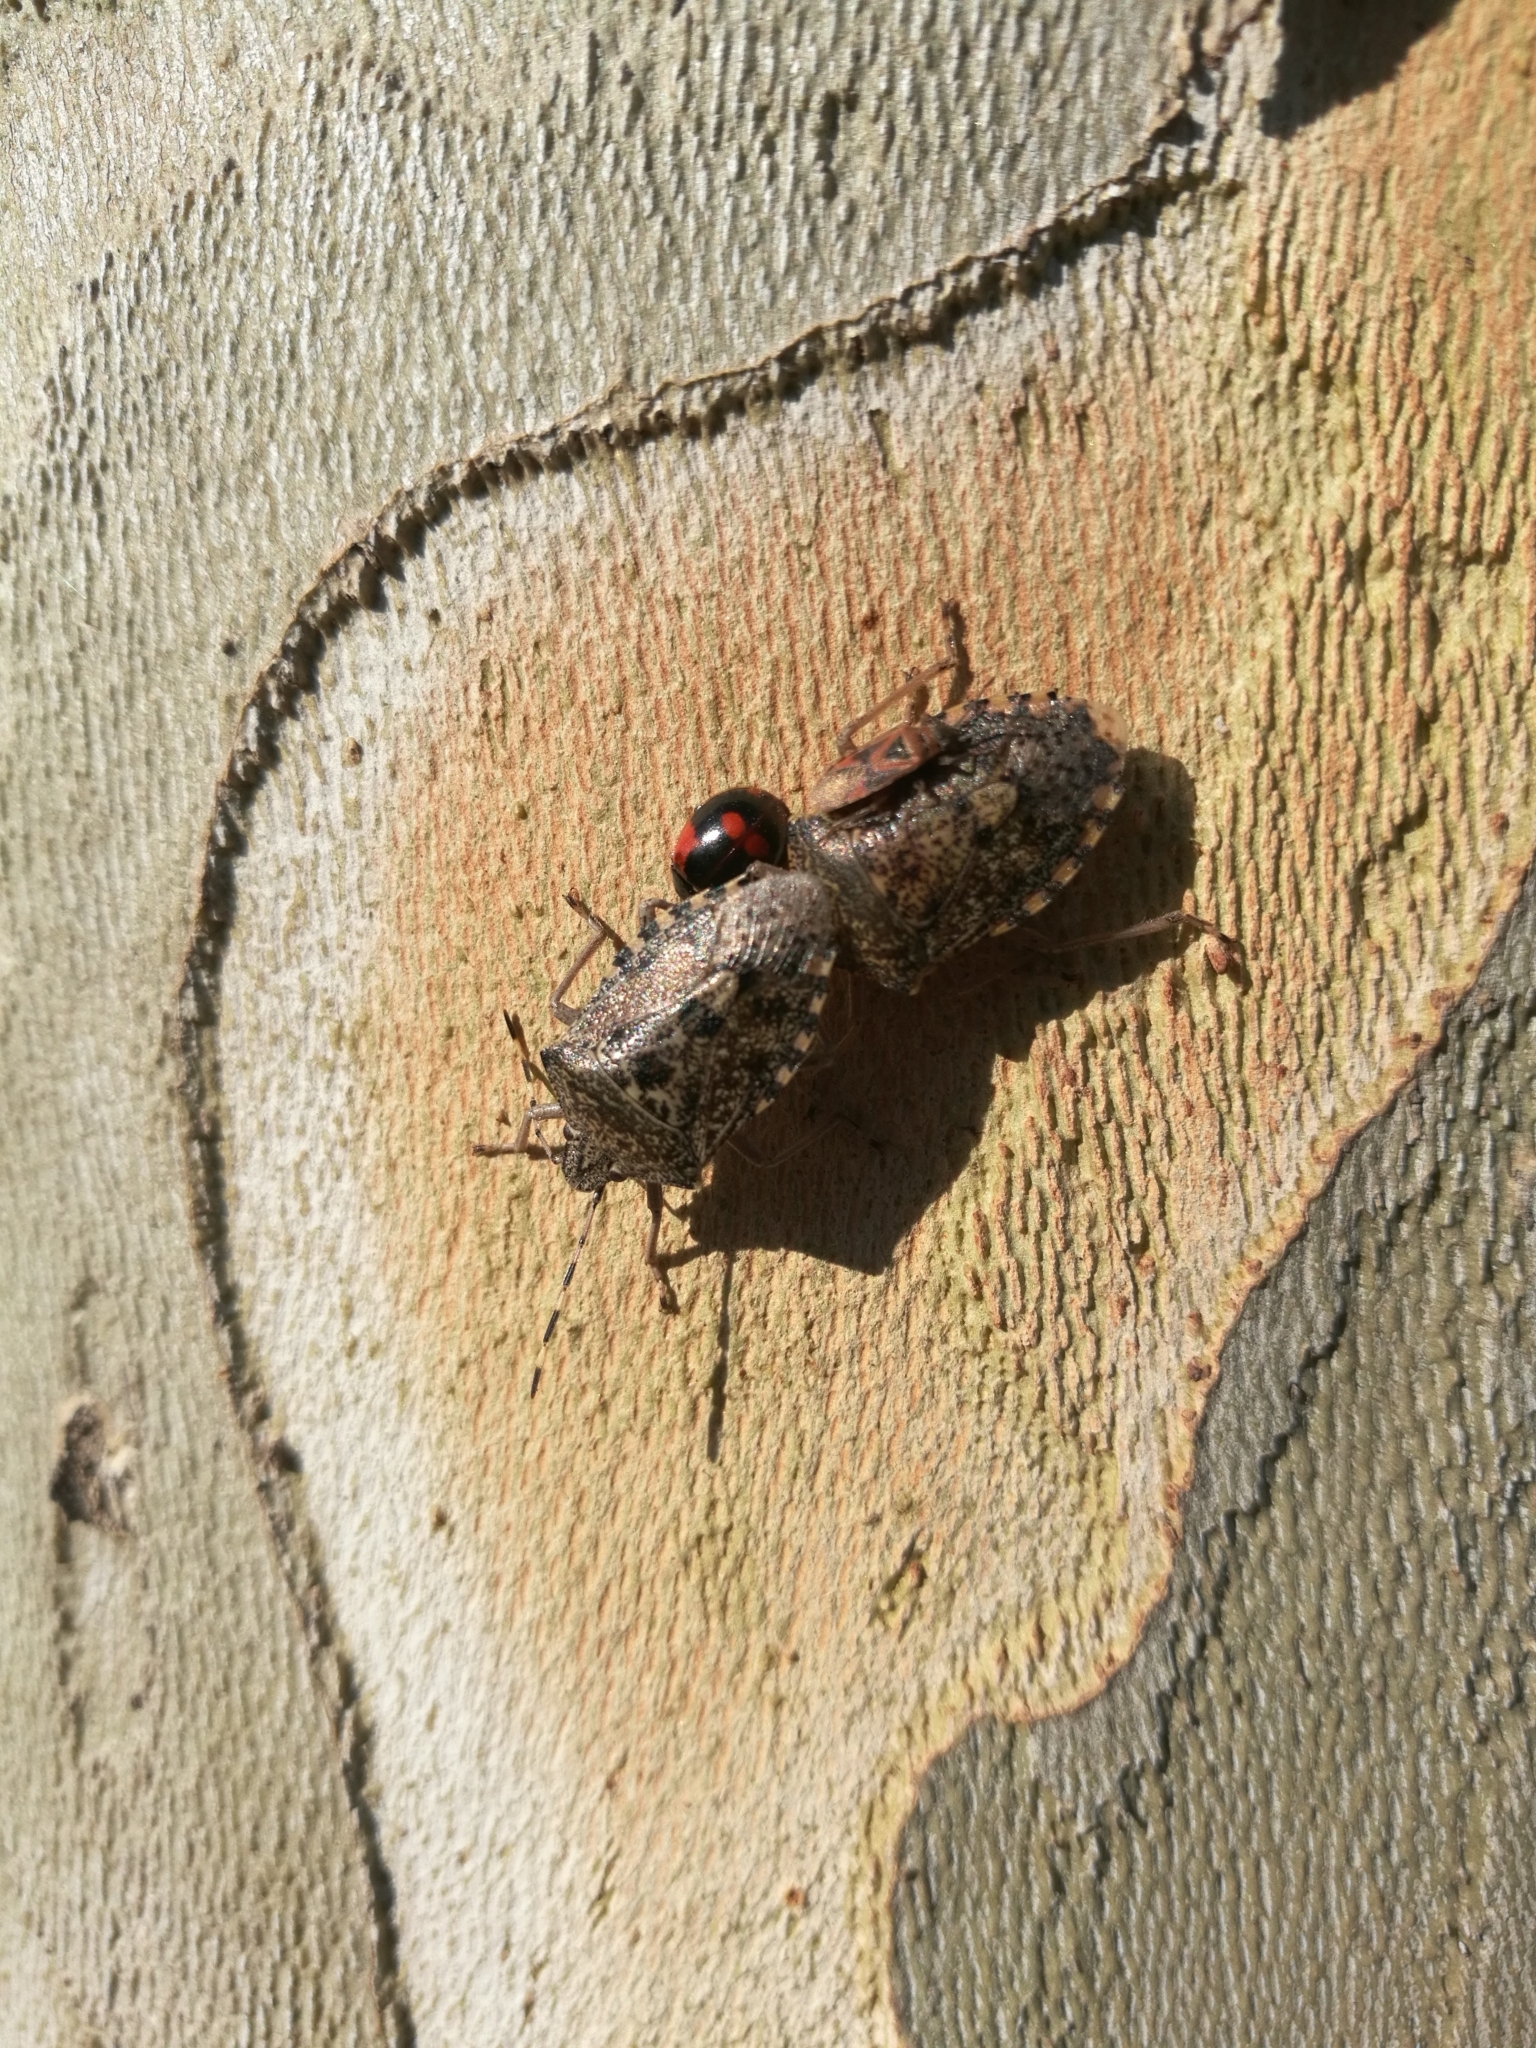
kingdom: Animalia
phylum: Arthropoda
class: Insecta
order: Coleoptera
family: Coccinellidae
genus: Adalia
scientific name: Adalia bipunctata
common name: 2-spot ladybird
